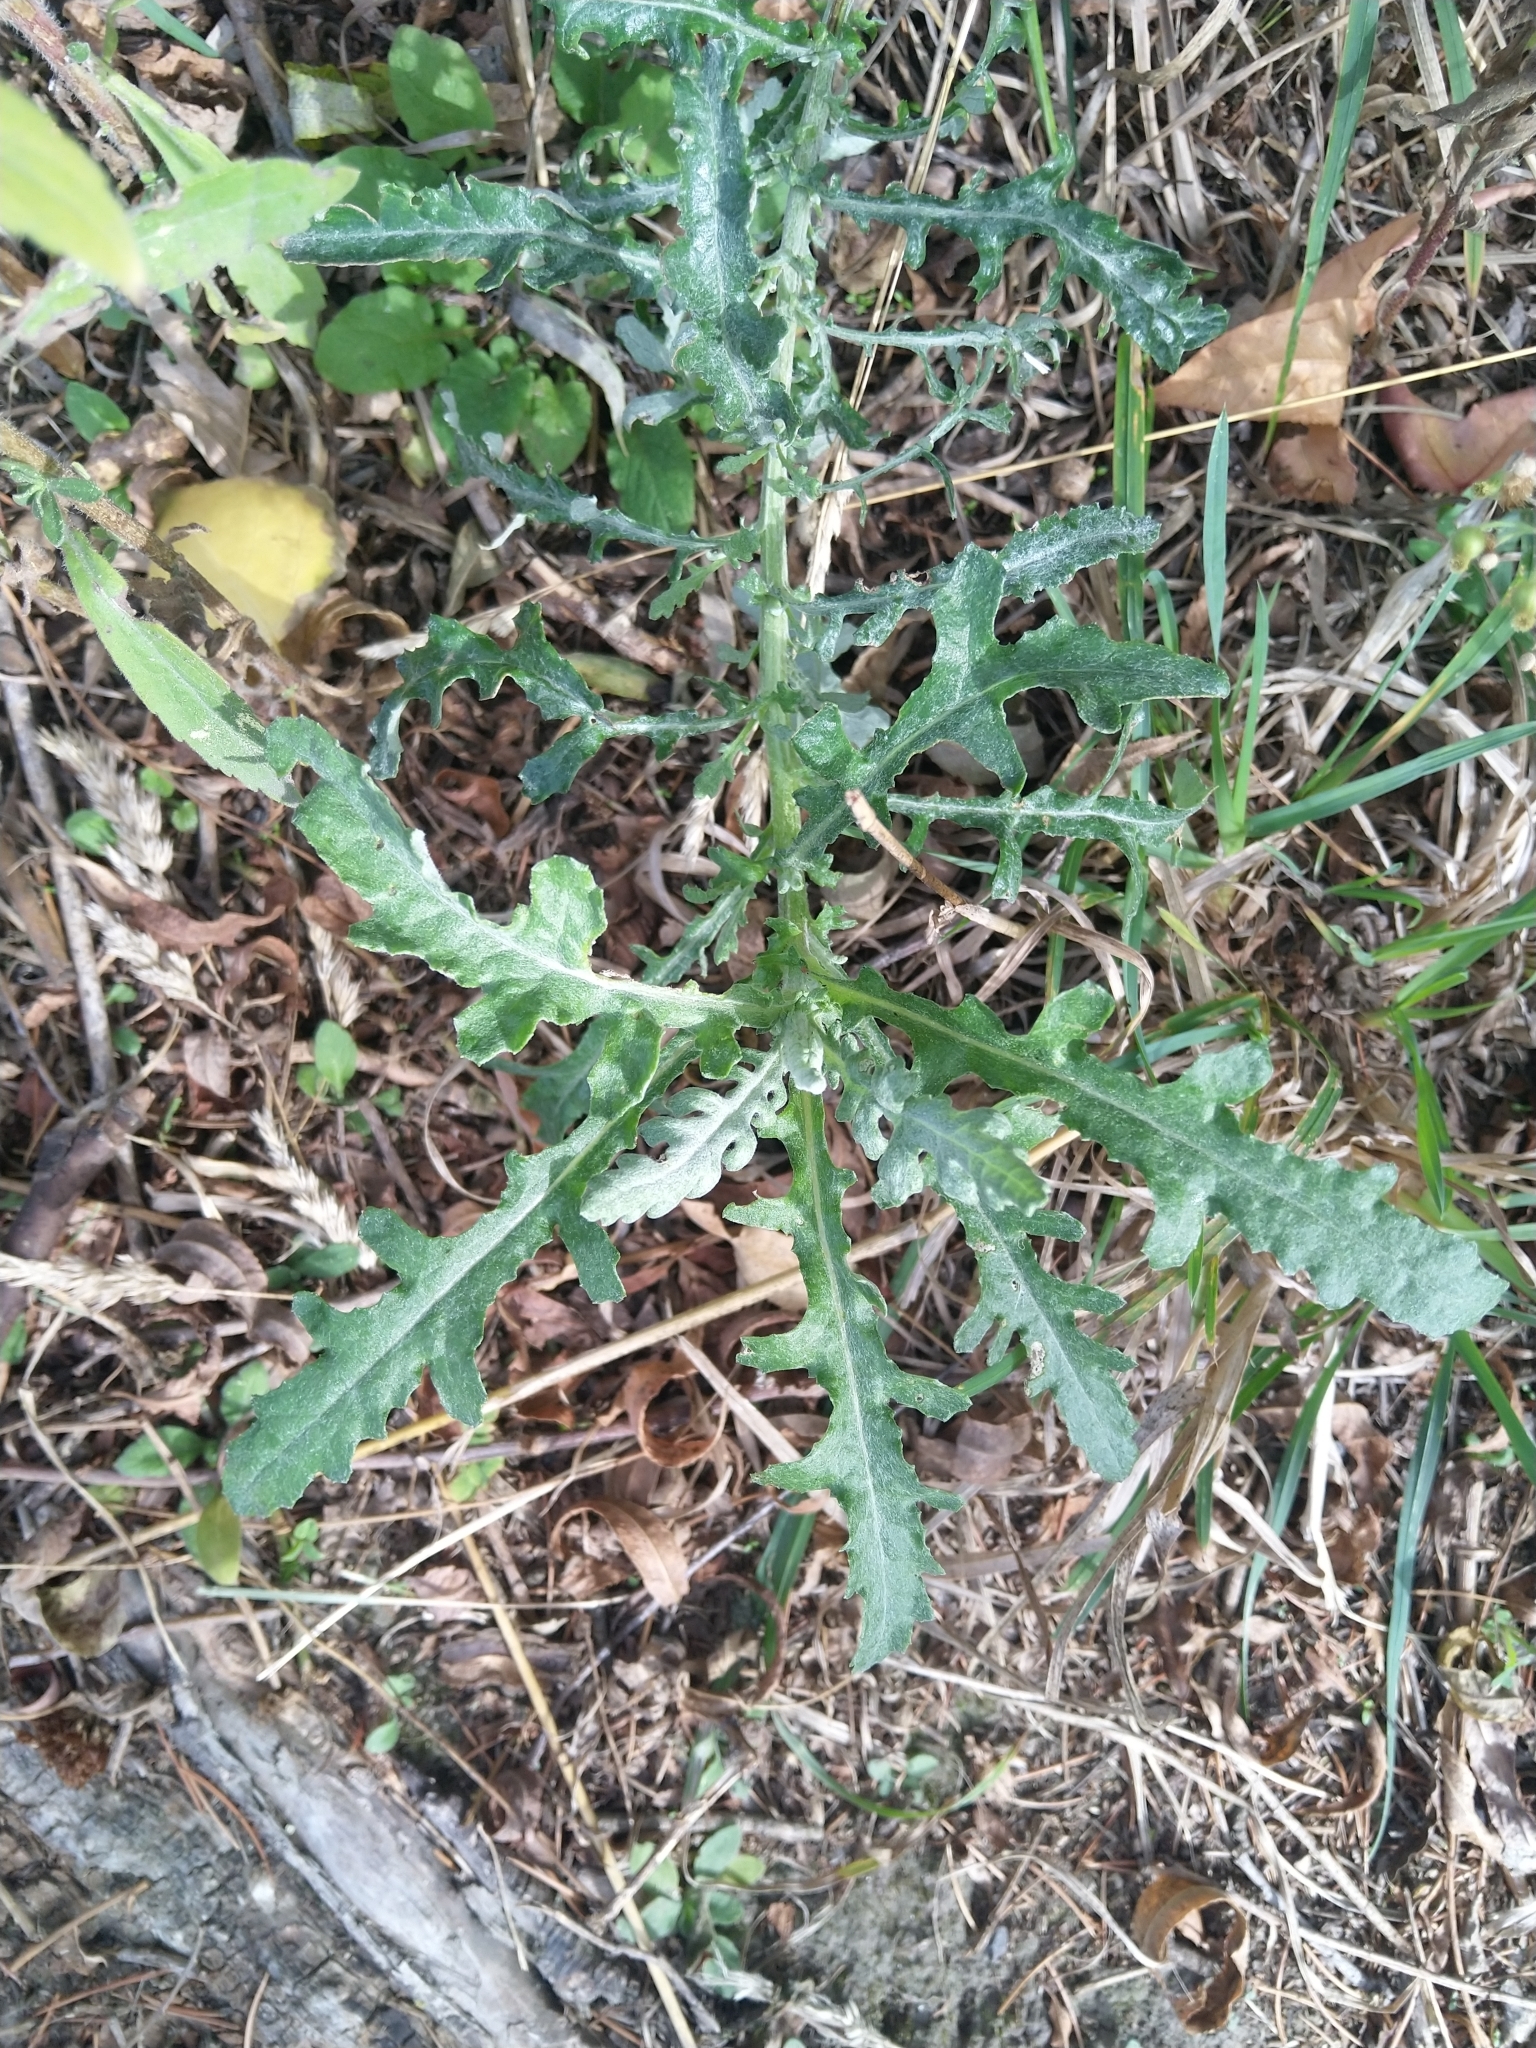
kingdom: Plantae
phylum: Tracheophyta
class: Magnoliopsida
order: Asterales
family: Asteraceae
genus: Senecio
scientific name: Senecio glomeratus
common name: Cutleaf burnweed
